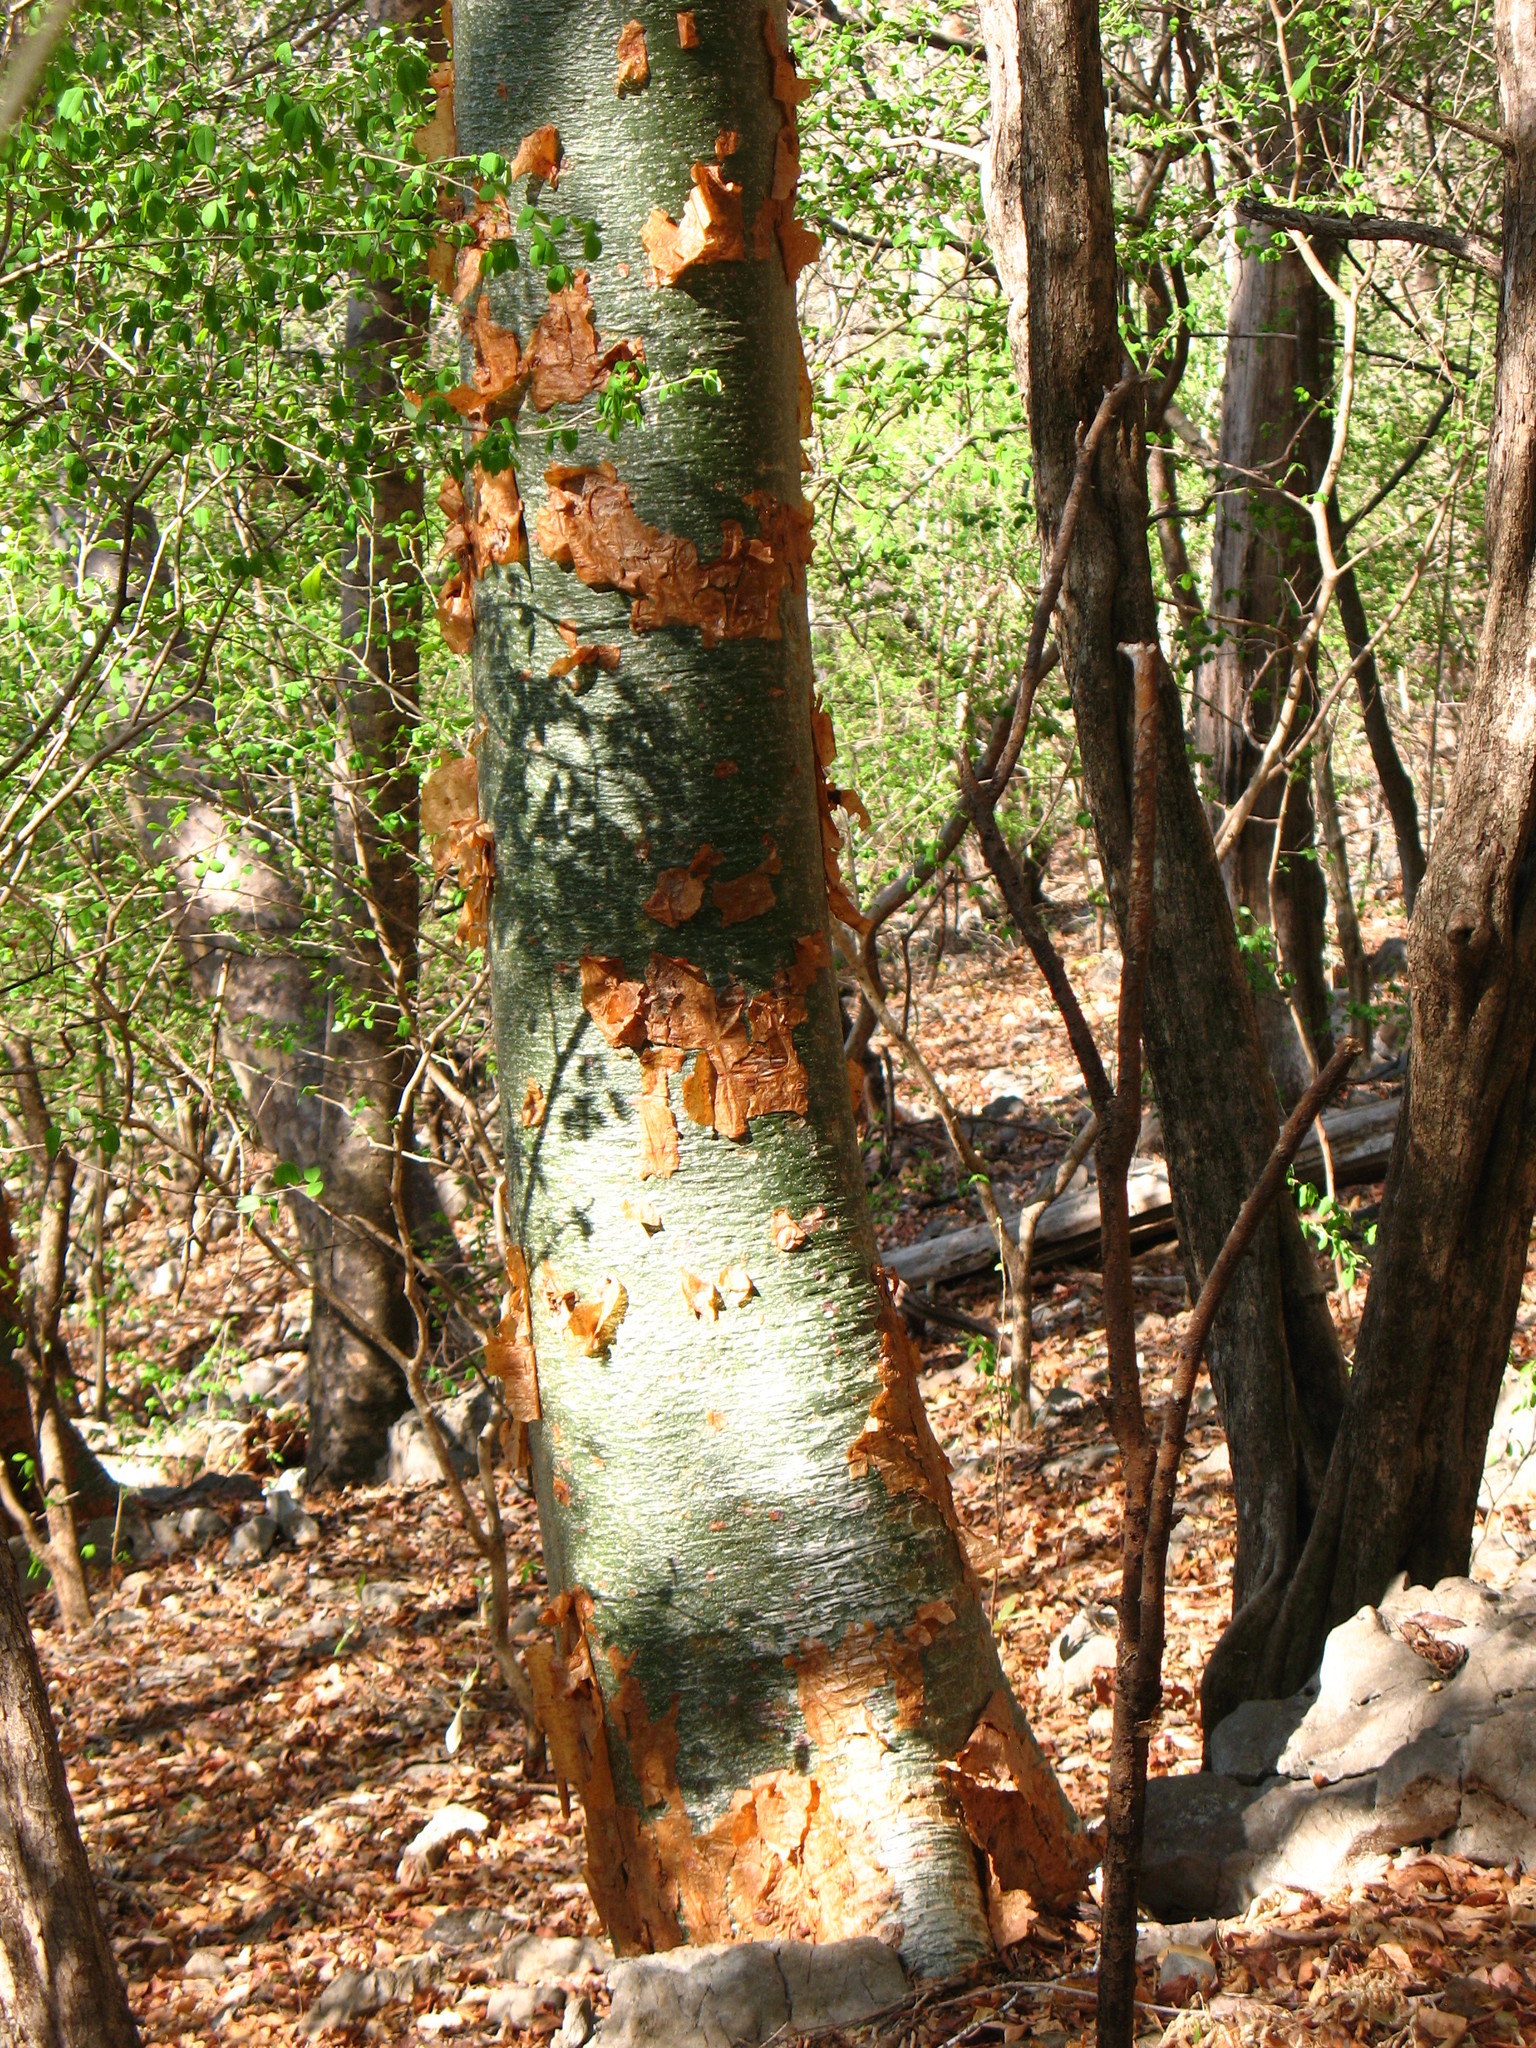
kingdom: Plantae
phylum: Tracheophyta
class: Magnoliopsida
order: Sapindales
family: Burseraceae
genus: Bursera
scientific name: Bursera simaruba
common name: Turpentine tree
